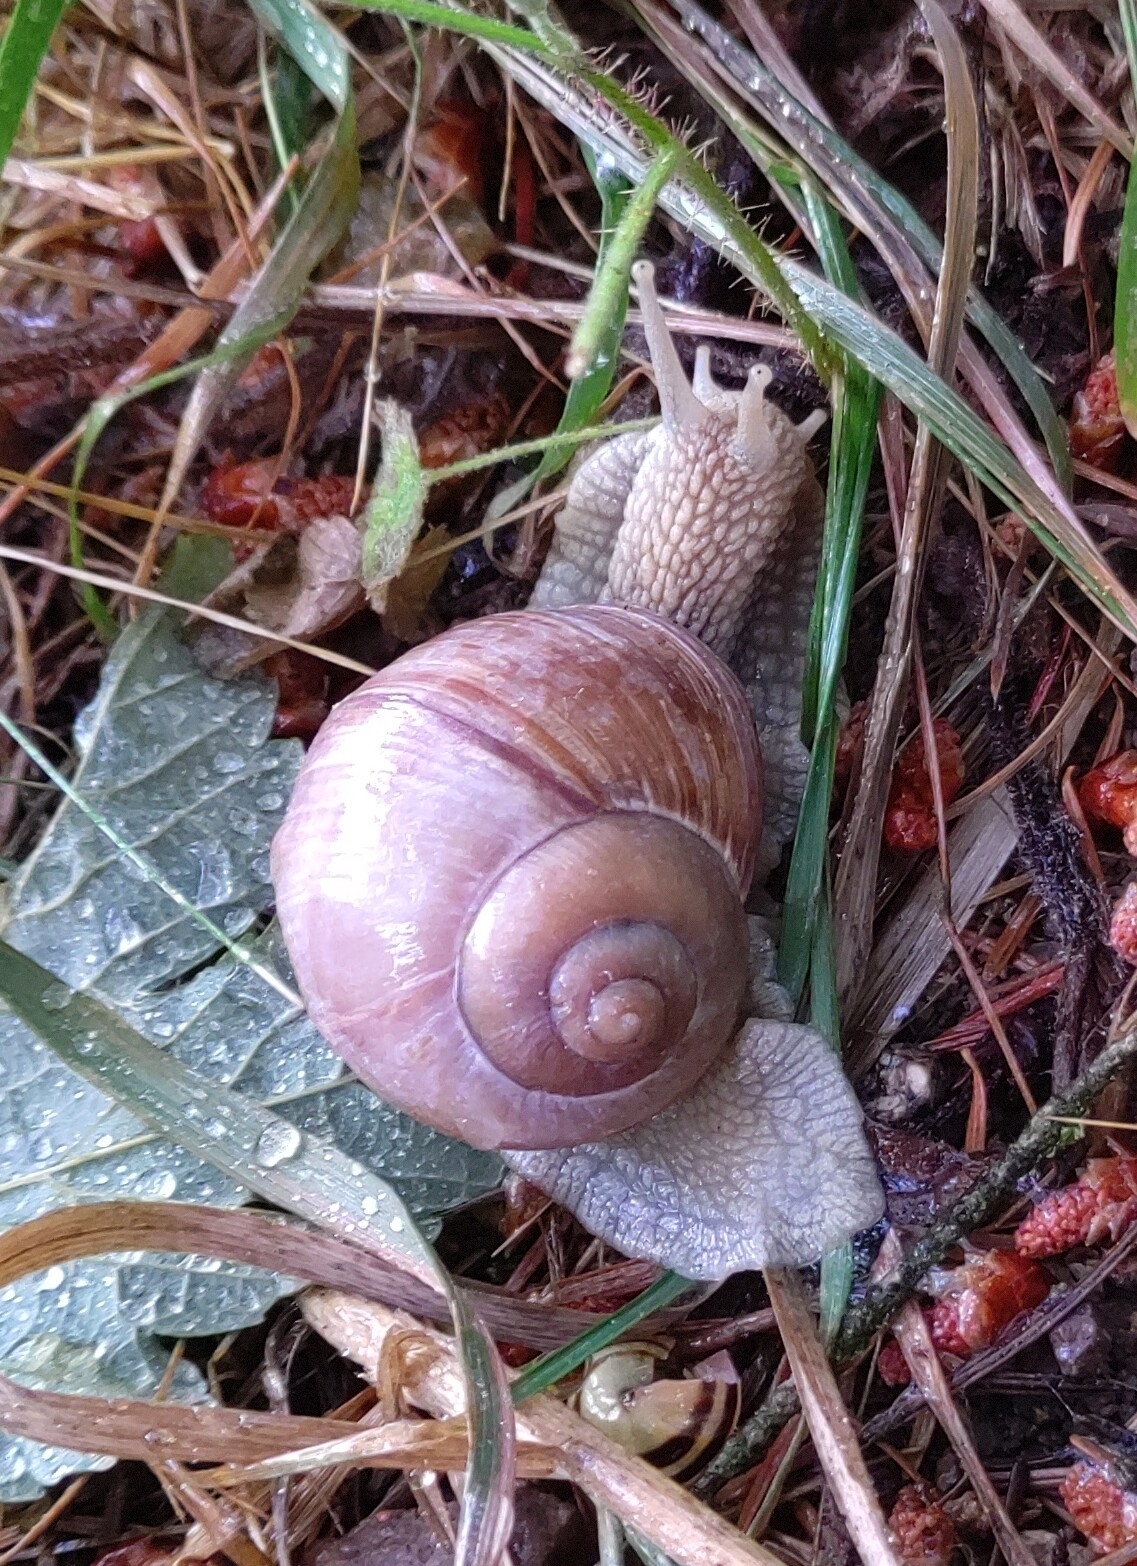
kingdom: Animalia
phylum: Mollusca
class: Gastropoda
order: Stylommatophora
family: Helicidae
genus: Helix
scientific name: Helix pomatia
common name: Roman snail
